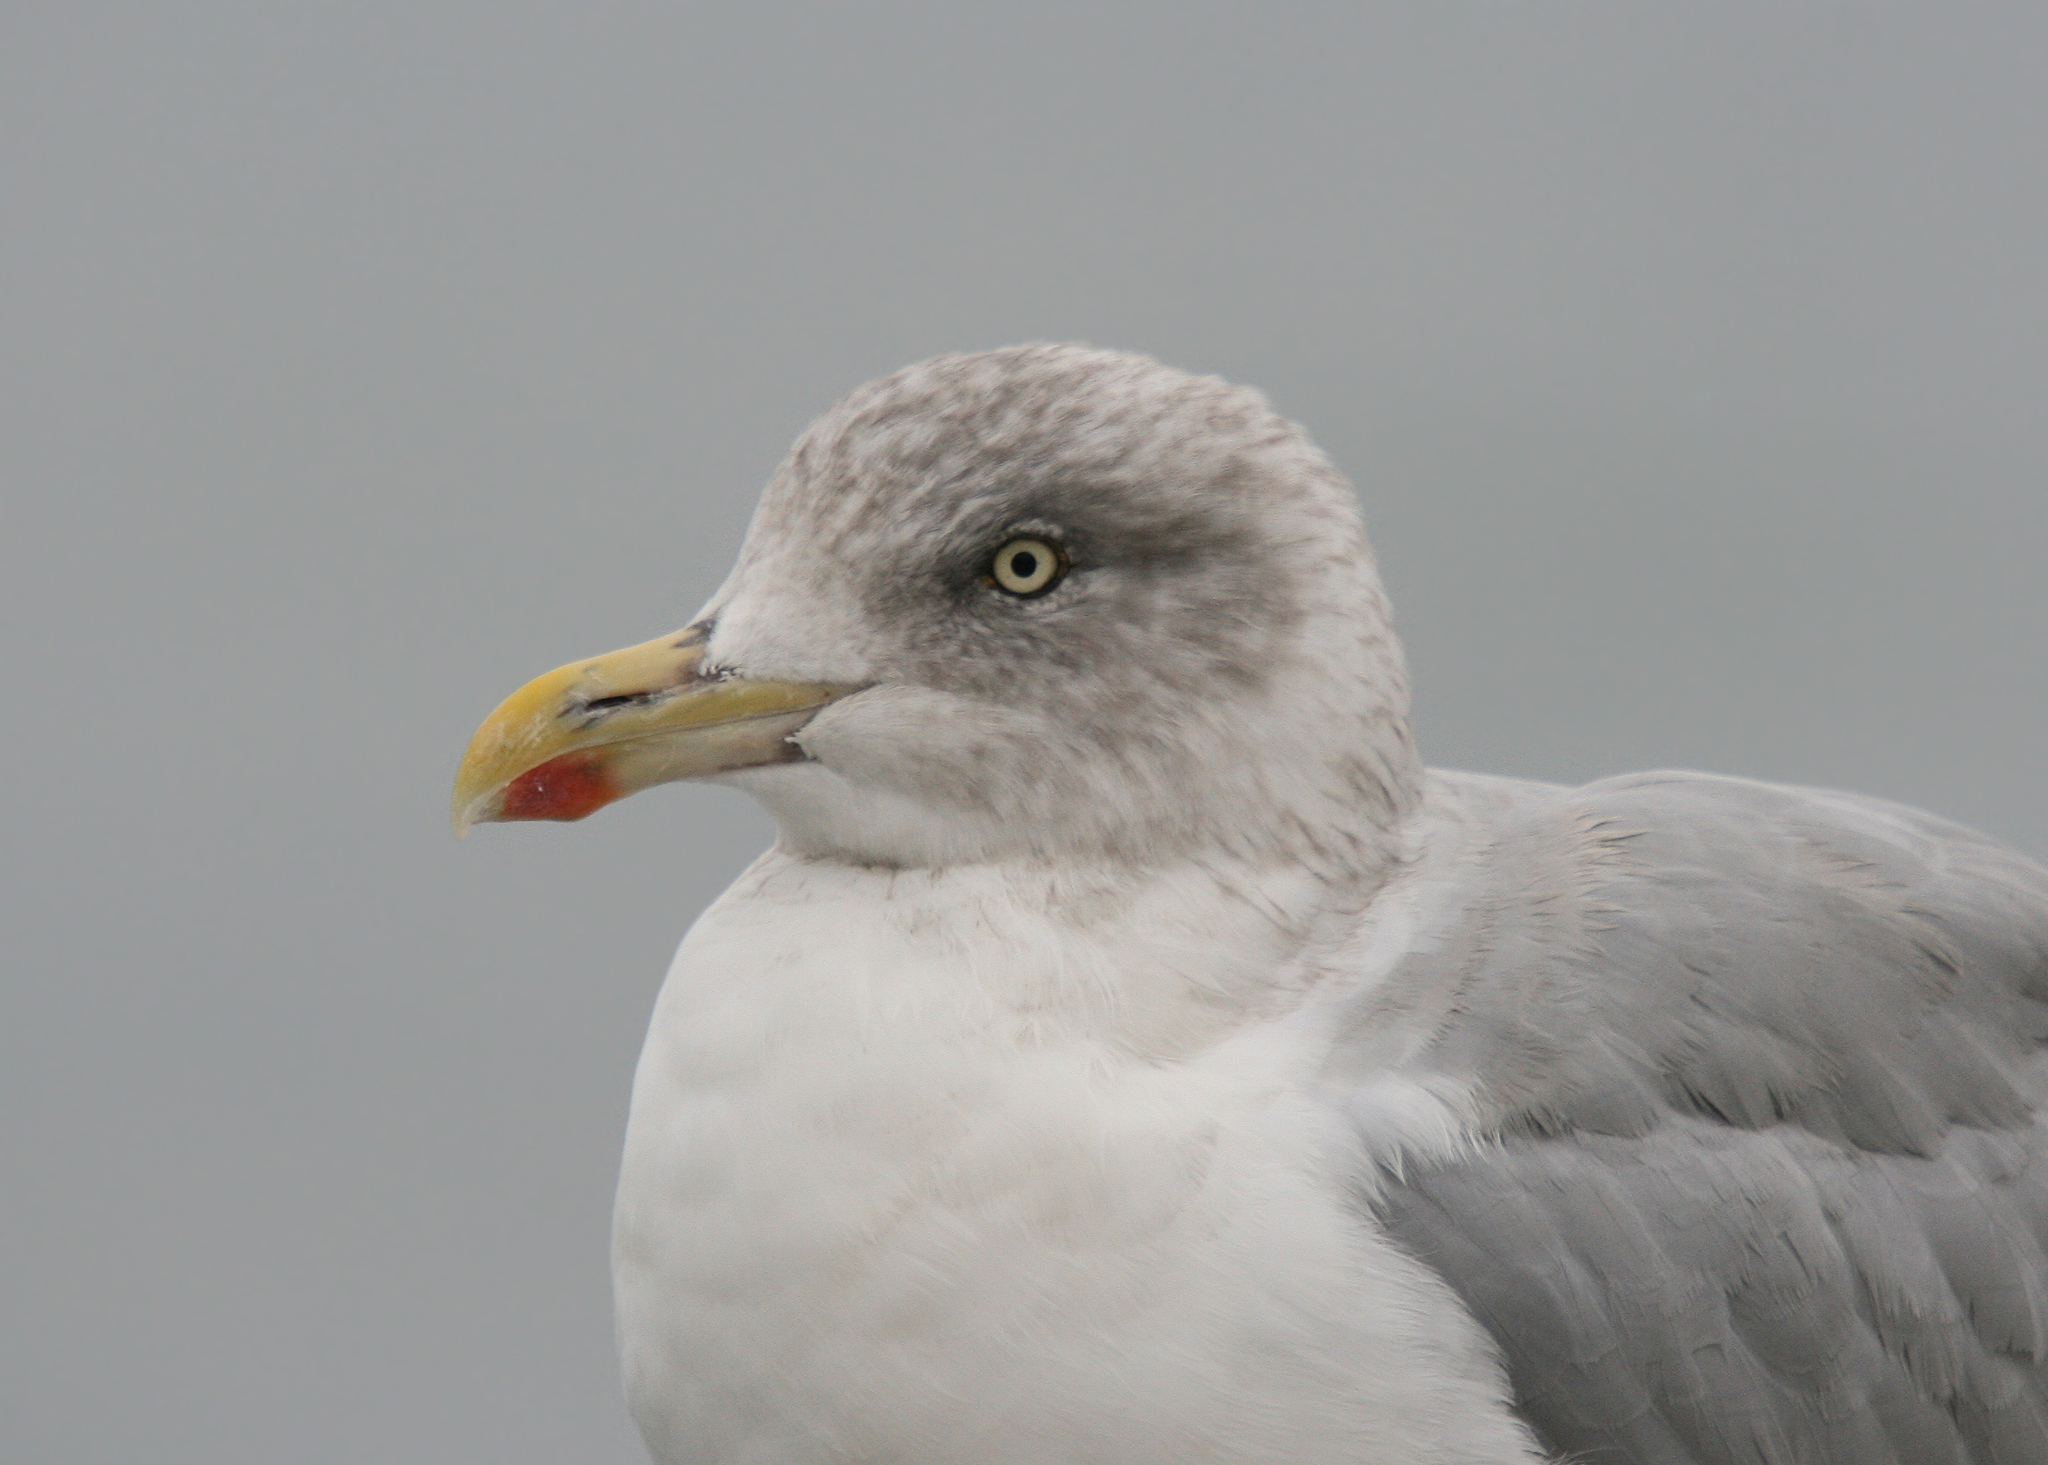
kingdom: Animalia
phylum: Chordata
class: Aves
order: Charadriiformes
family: Laridae
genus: Larus
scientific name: Larus argentatus
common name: Herring gull
